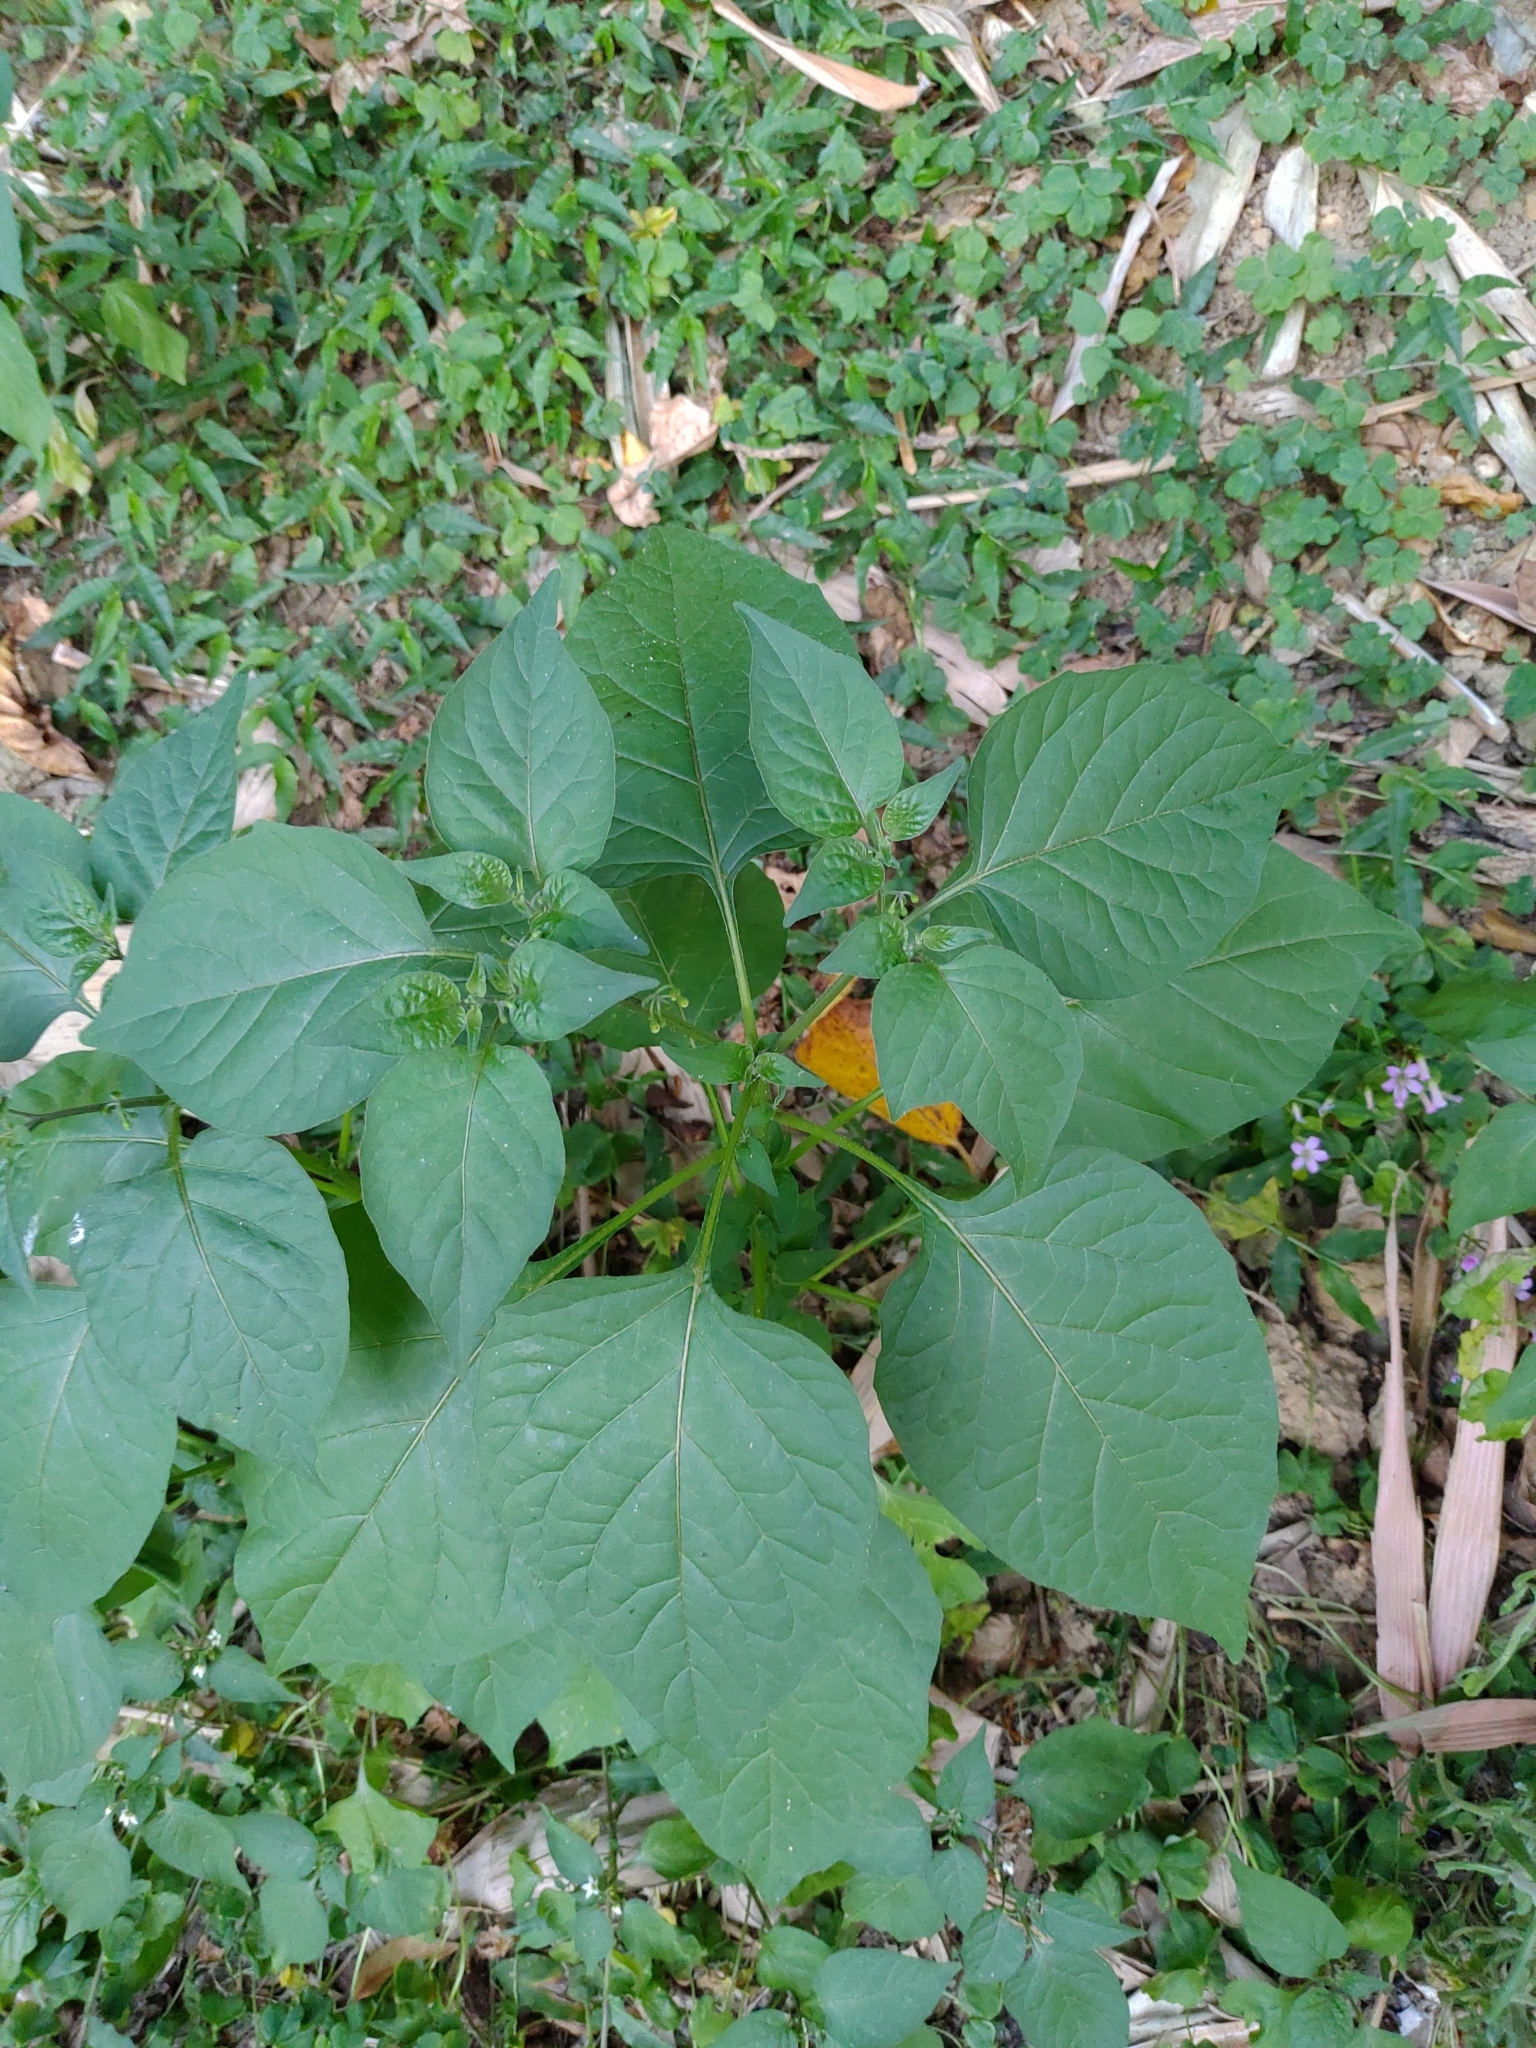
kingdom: Plantae
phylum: Tracheophyta
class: Magnoliopsida
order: Solanales
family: Solanaceae
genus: Solanum
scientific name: Solanum
